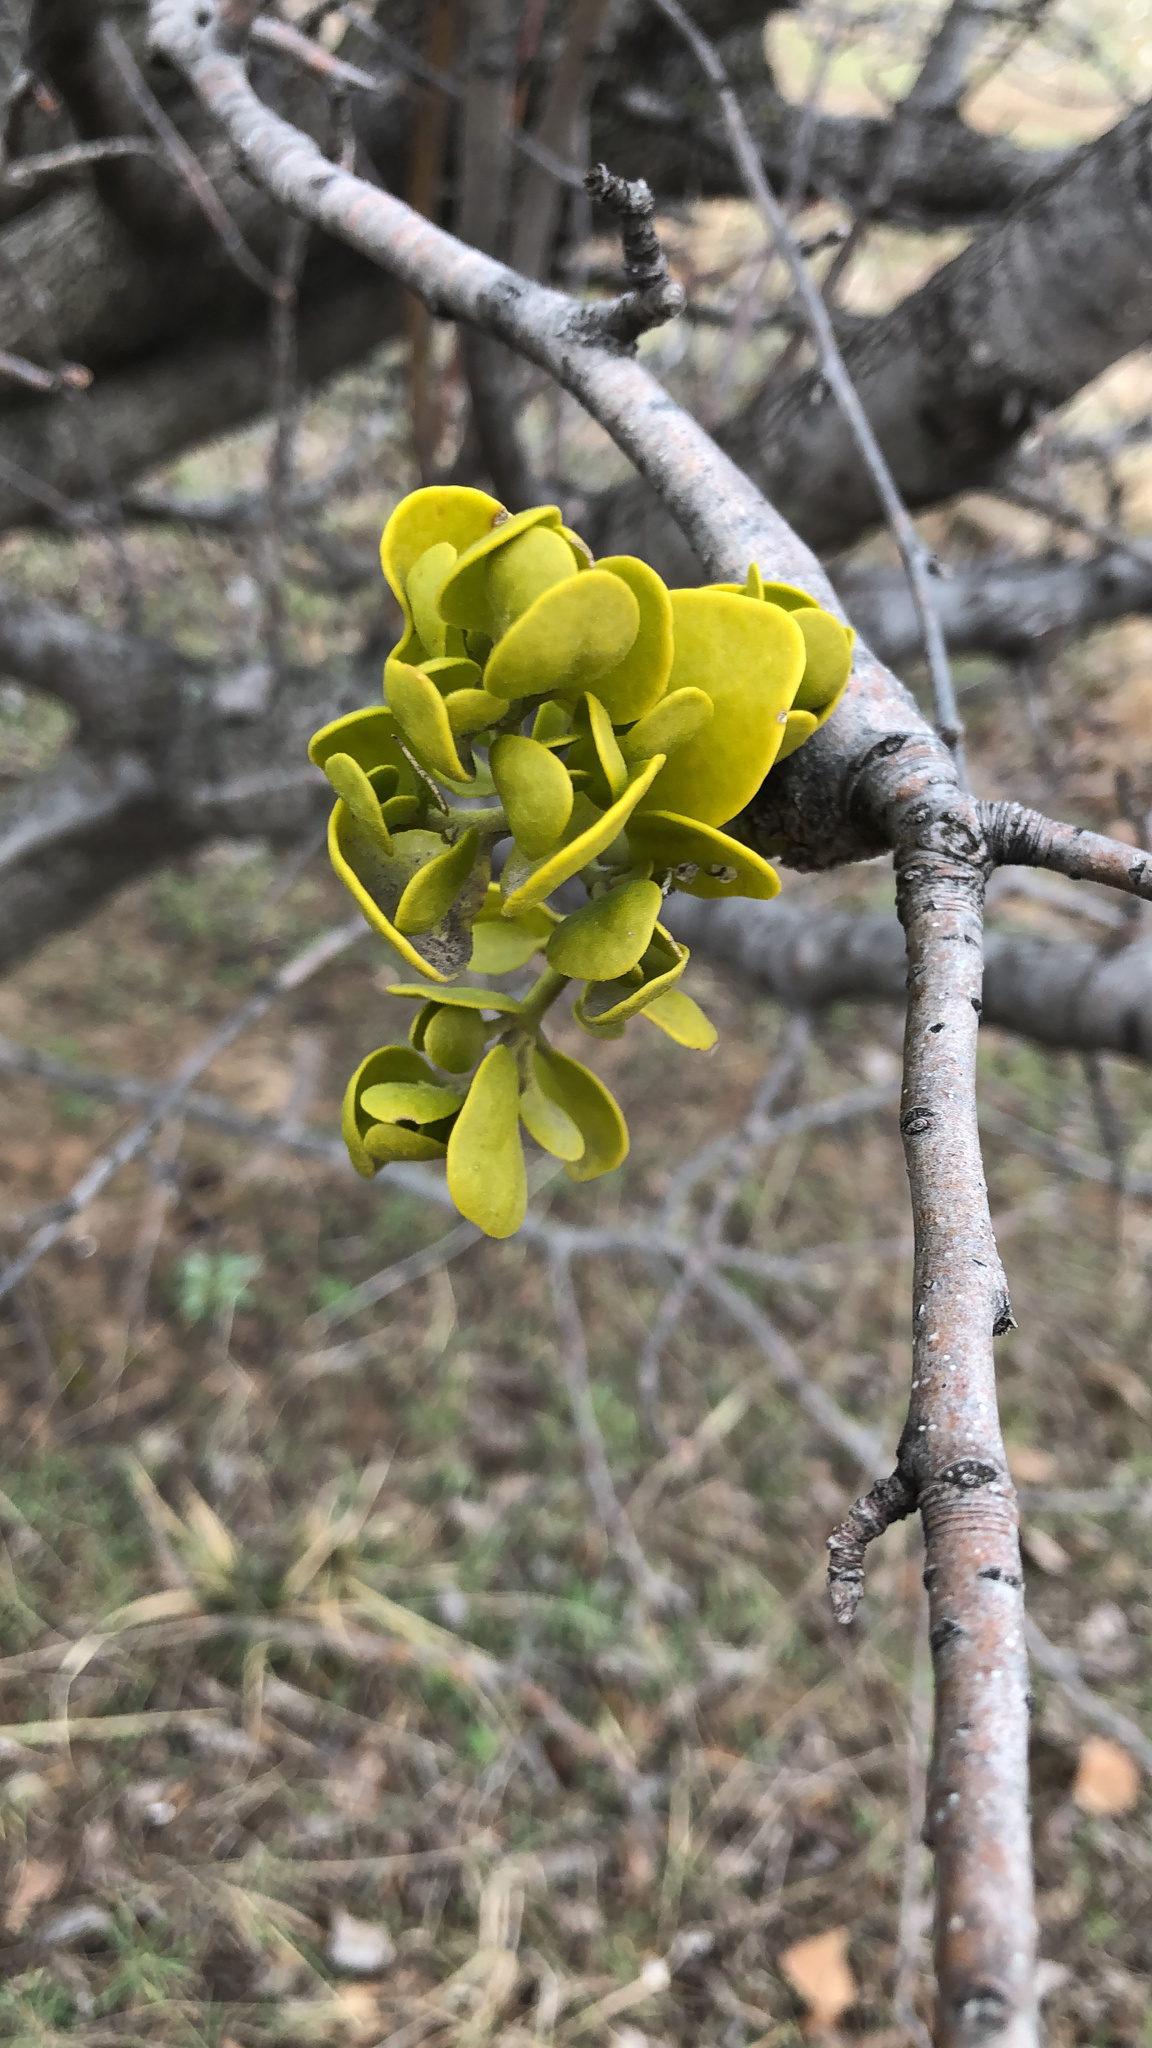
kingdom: Plantae
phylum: Tracheophyta
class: Magnoliopsida
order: Santalales
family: Viscaceae
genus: Phoradendron
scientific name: Phoradendron leucarpum
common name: Pacific mistletoe
